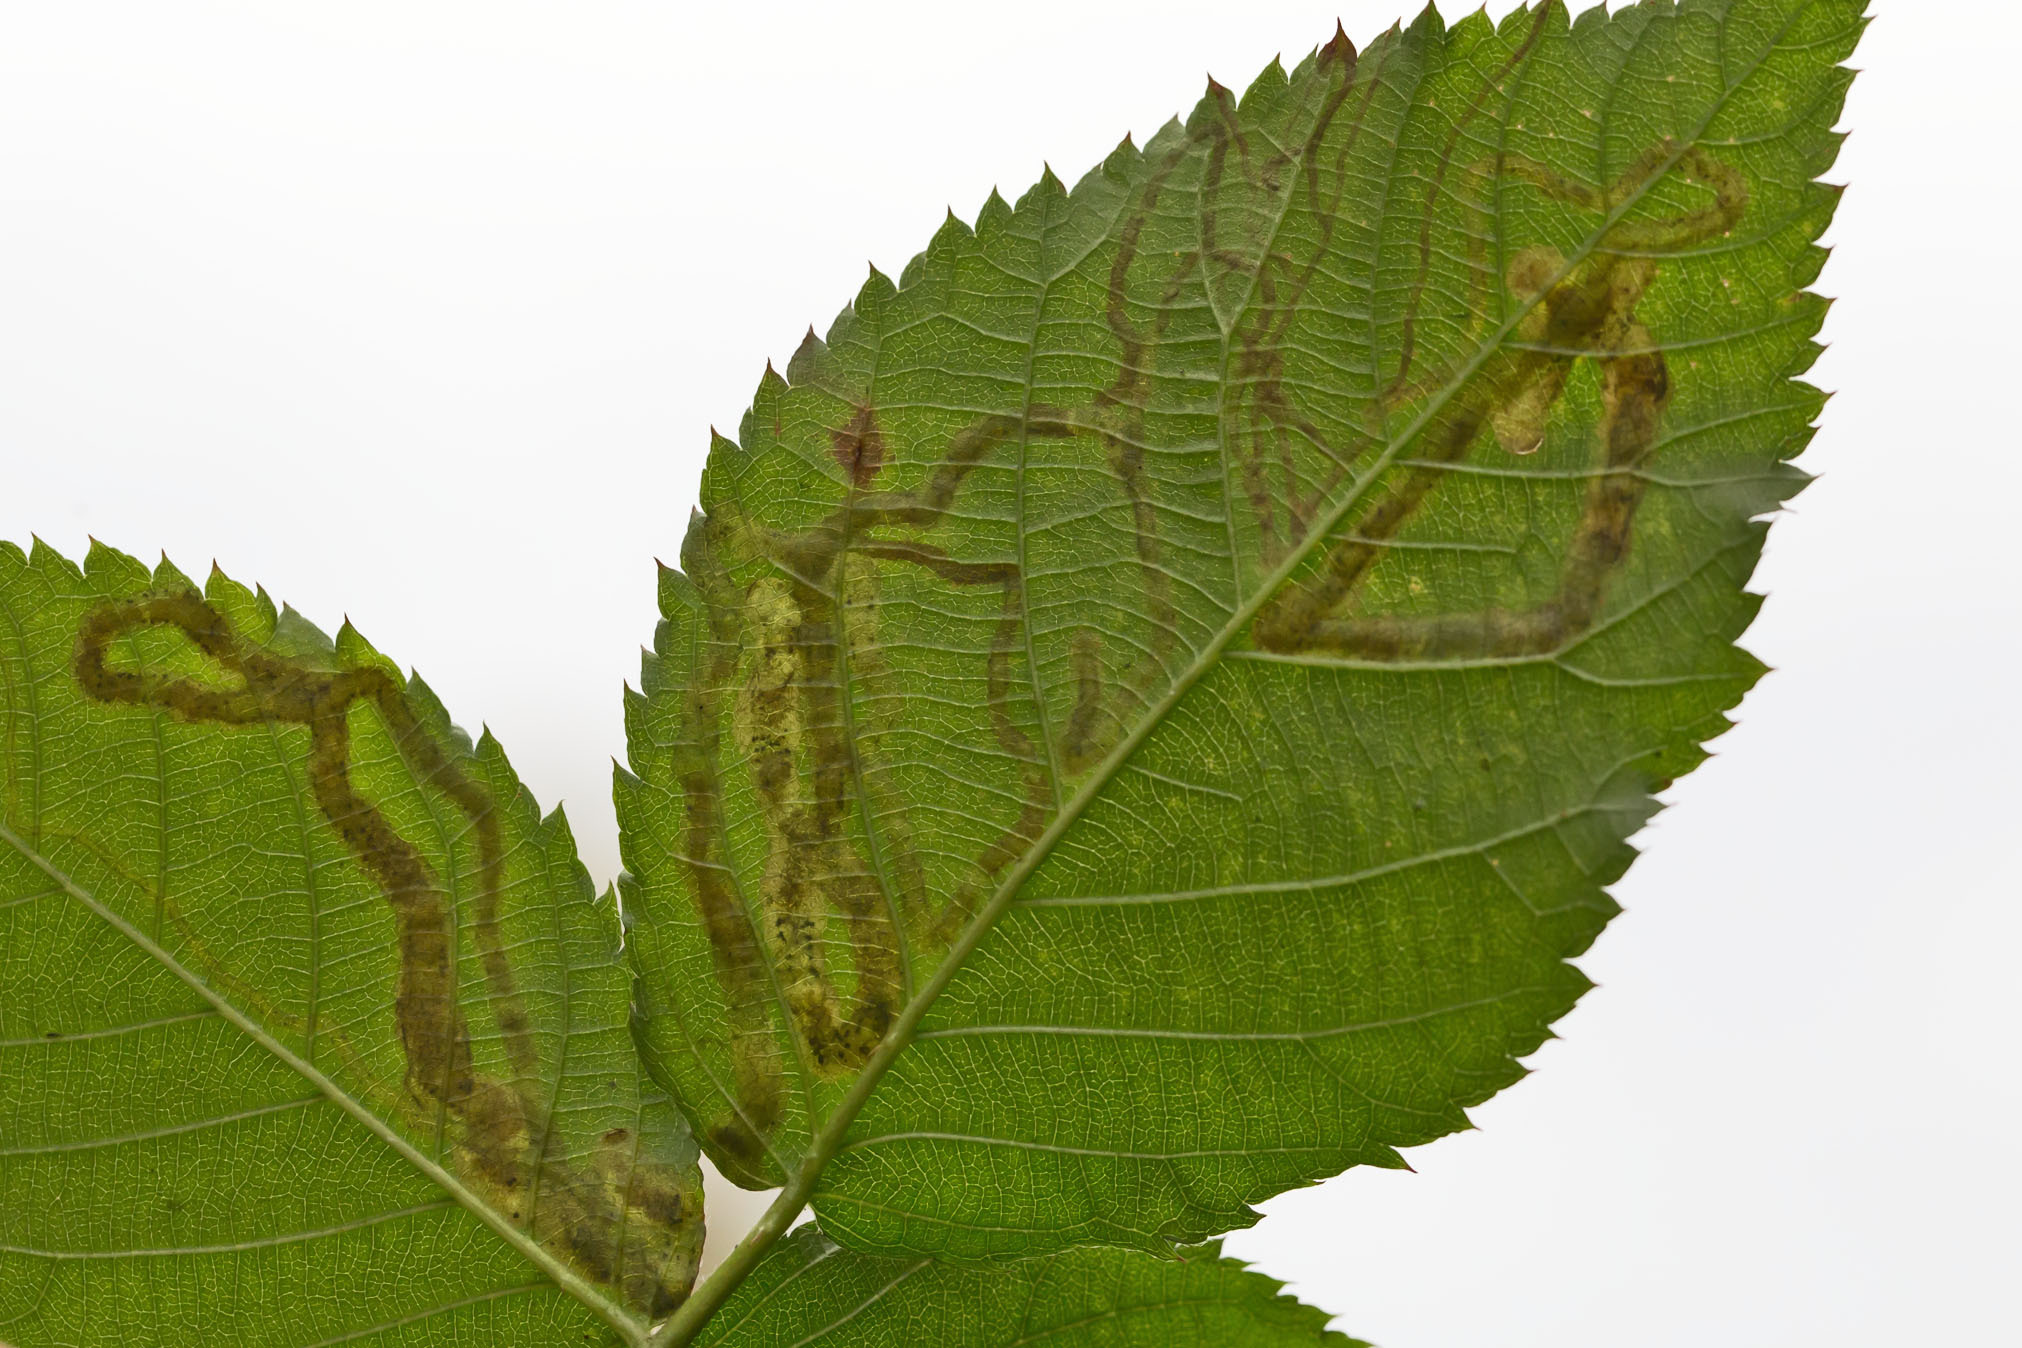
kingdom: Animalia
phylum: Arthropoda
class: Insecta
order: Diptera
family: Agromyzidae
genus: Agromyza
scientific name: Agromyza vockerothi
